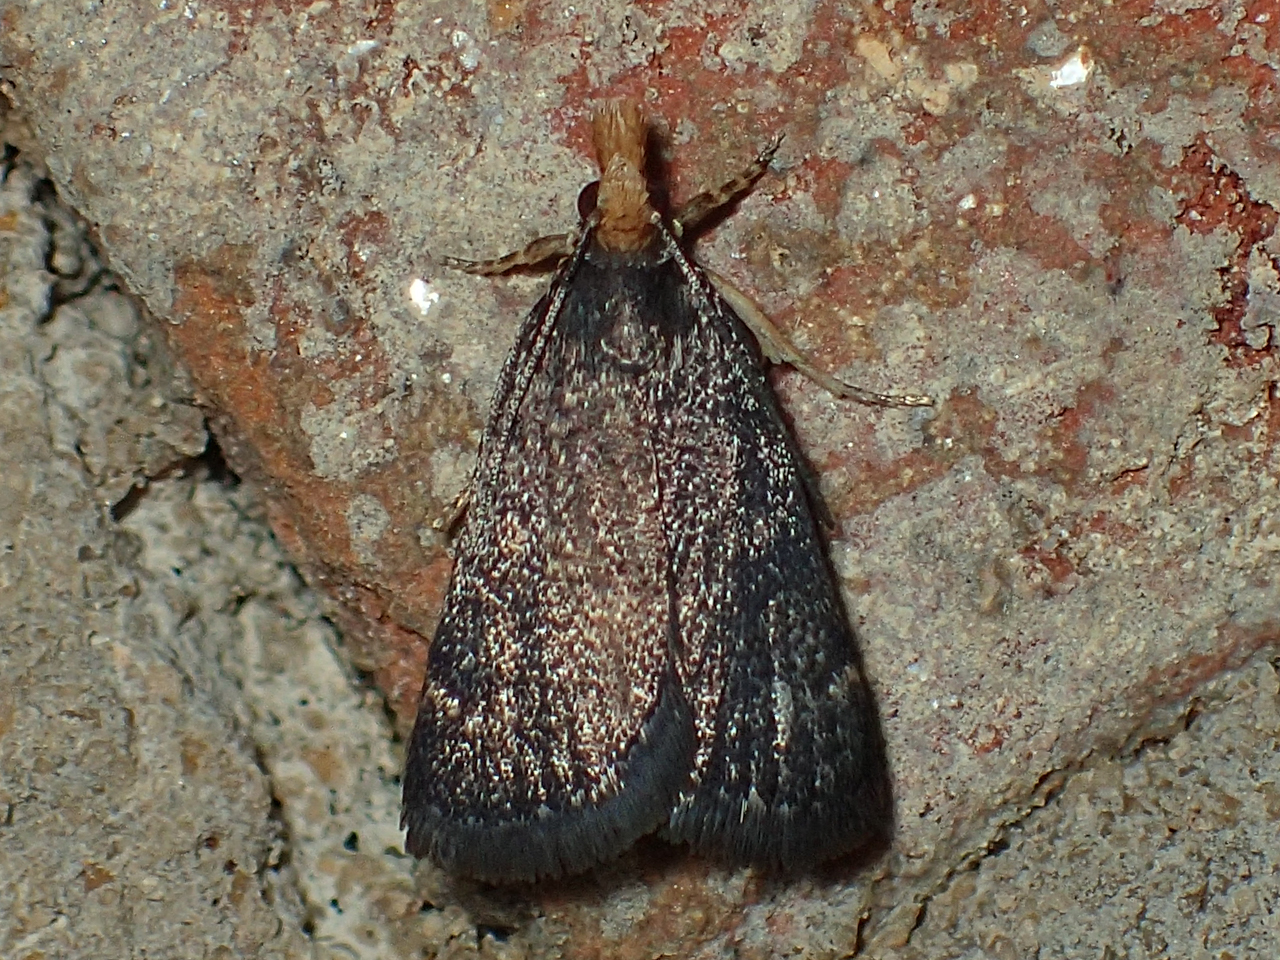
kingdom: Animalia
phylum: Arthropoda
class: Insecta
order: Lepidoptera
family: Crambidae
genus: Pyrausta
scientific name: Pyrausta merrickalis
